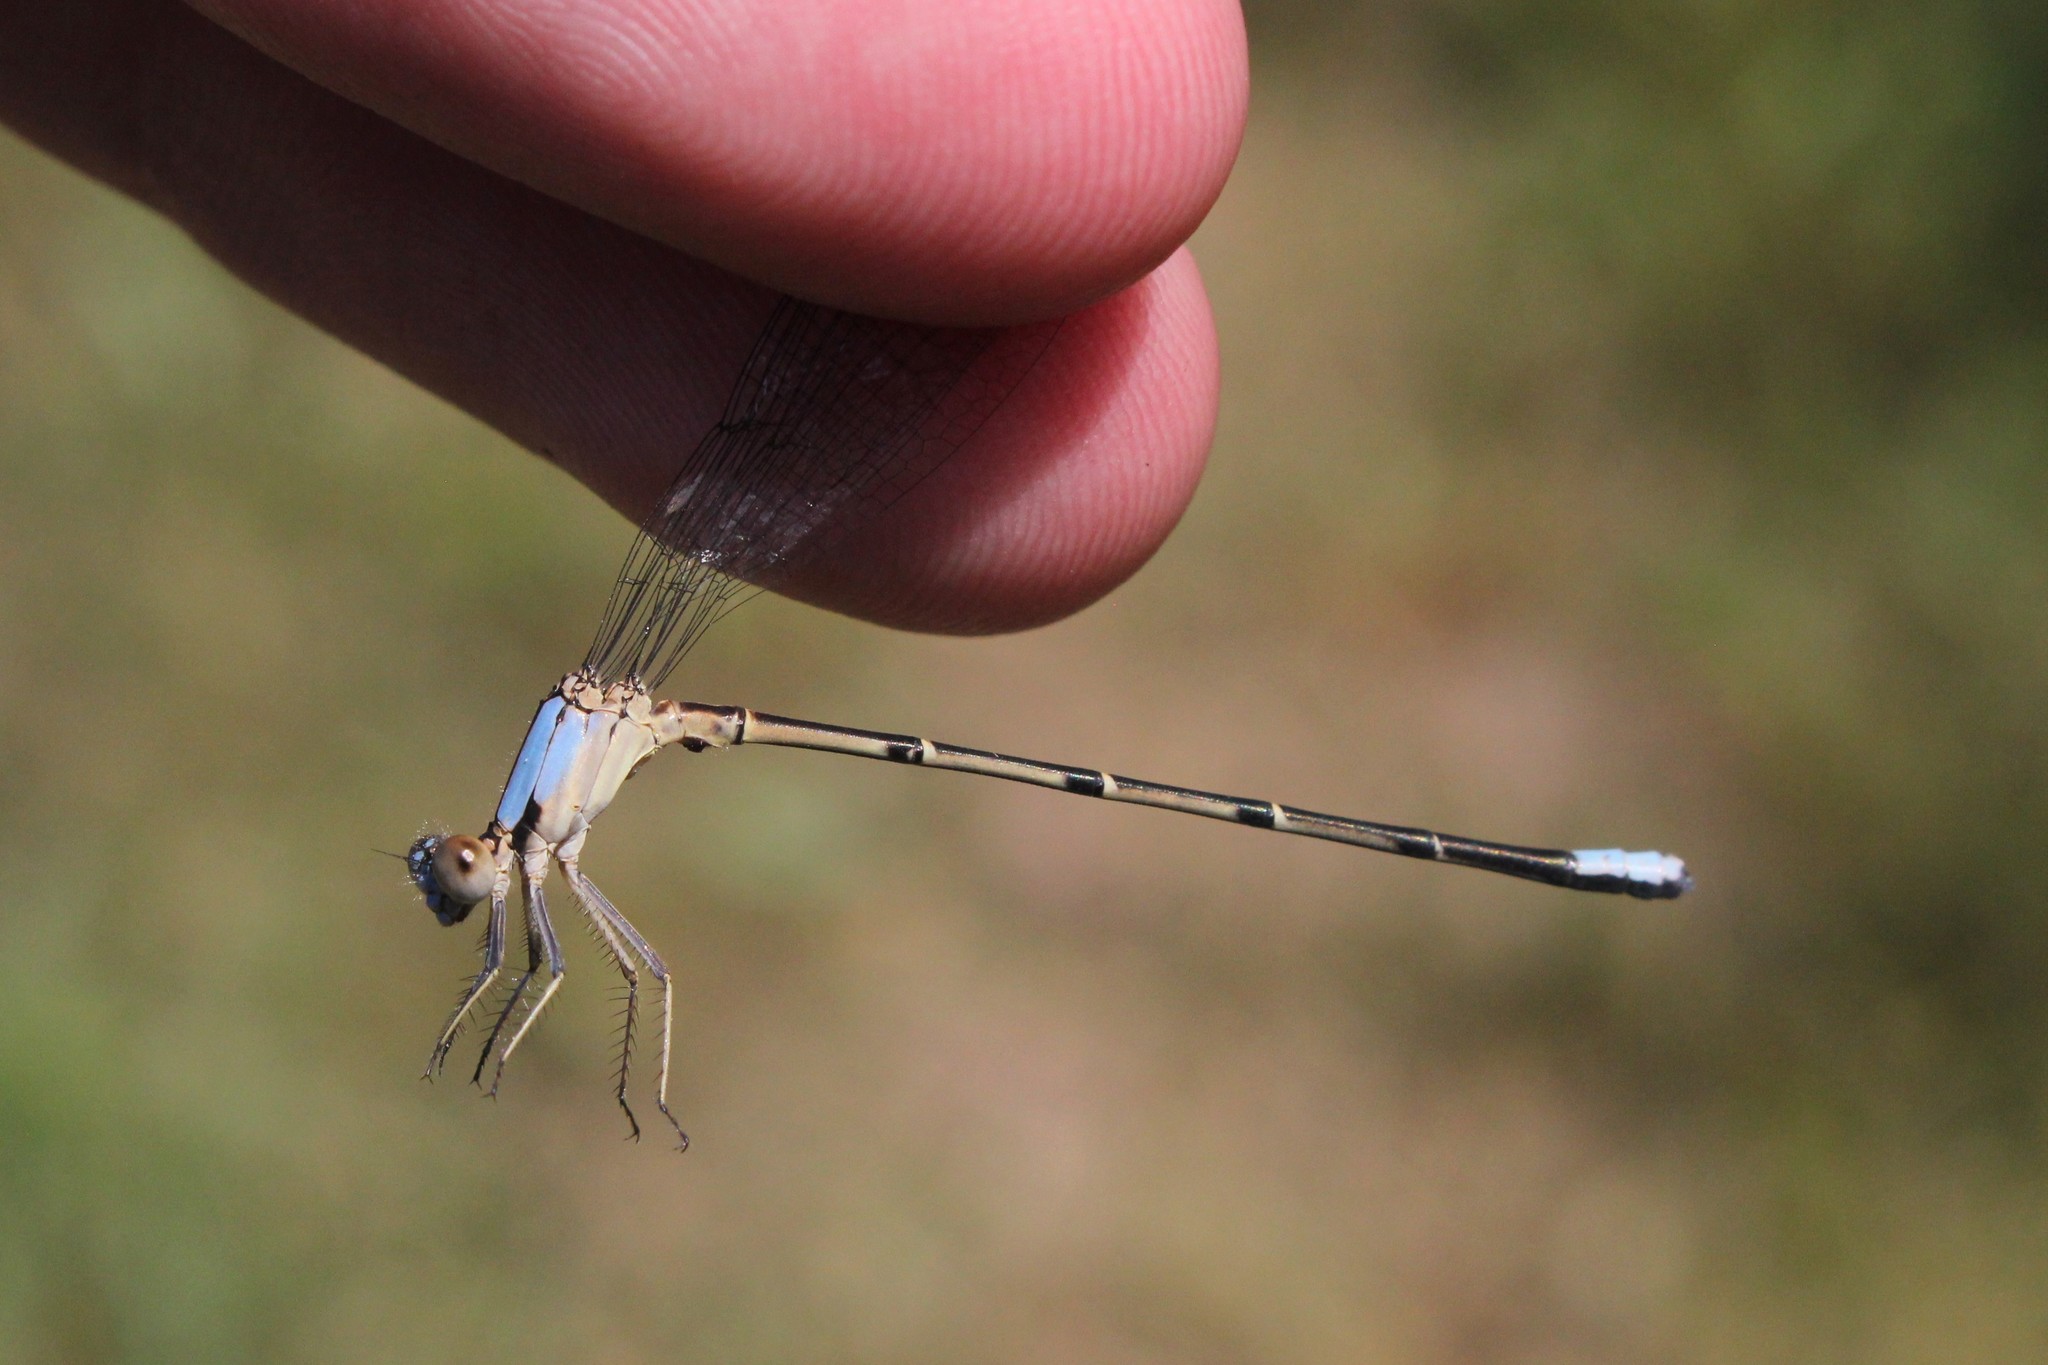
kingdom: Animalia
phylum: Arthropoda
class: Insecta
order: Odonata
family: Coenagrionidae
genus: Argia
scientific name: Argia apicalis
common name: Blue-fronted dancer
